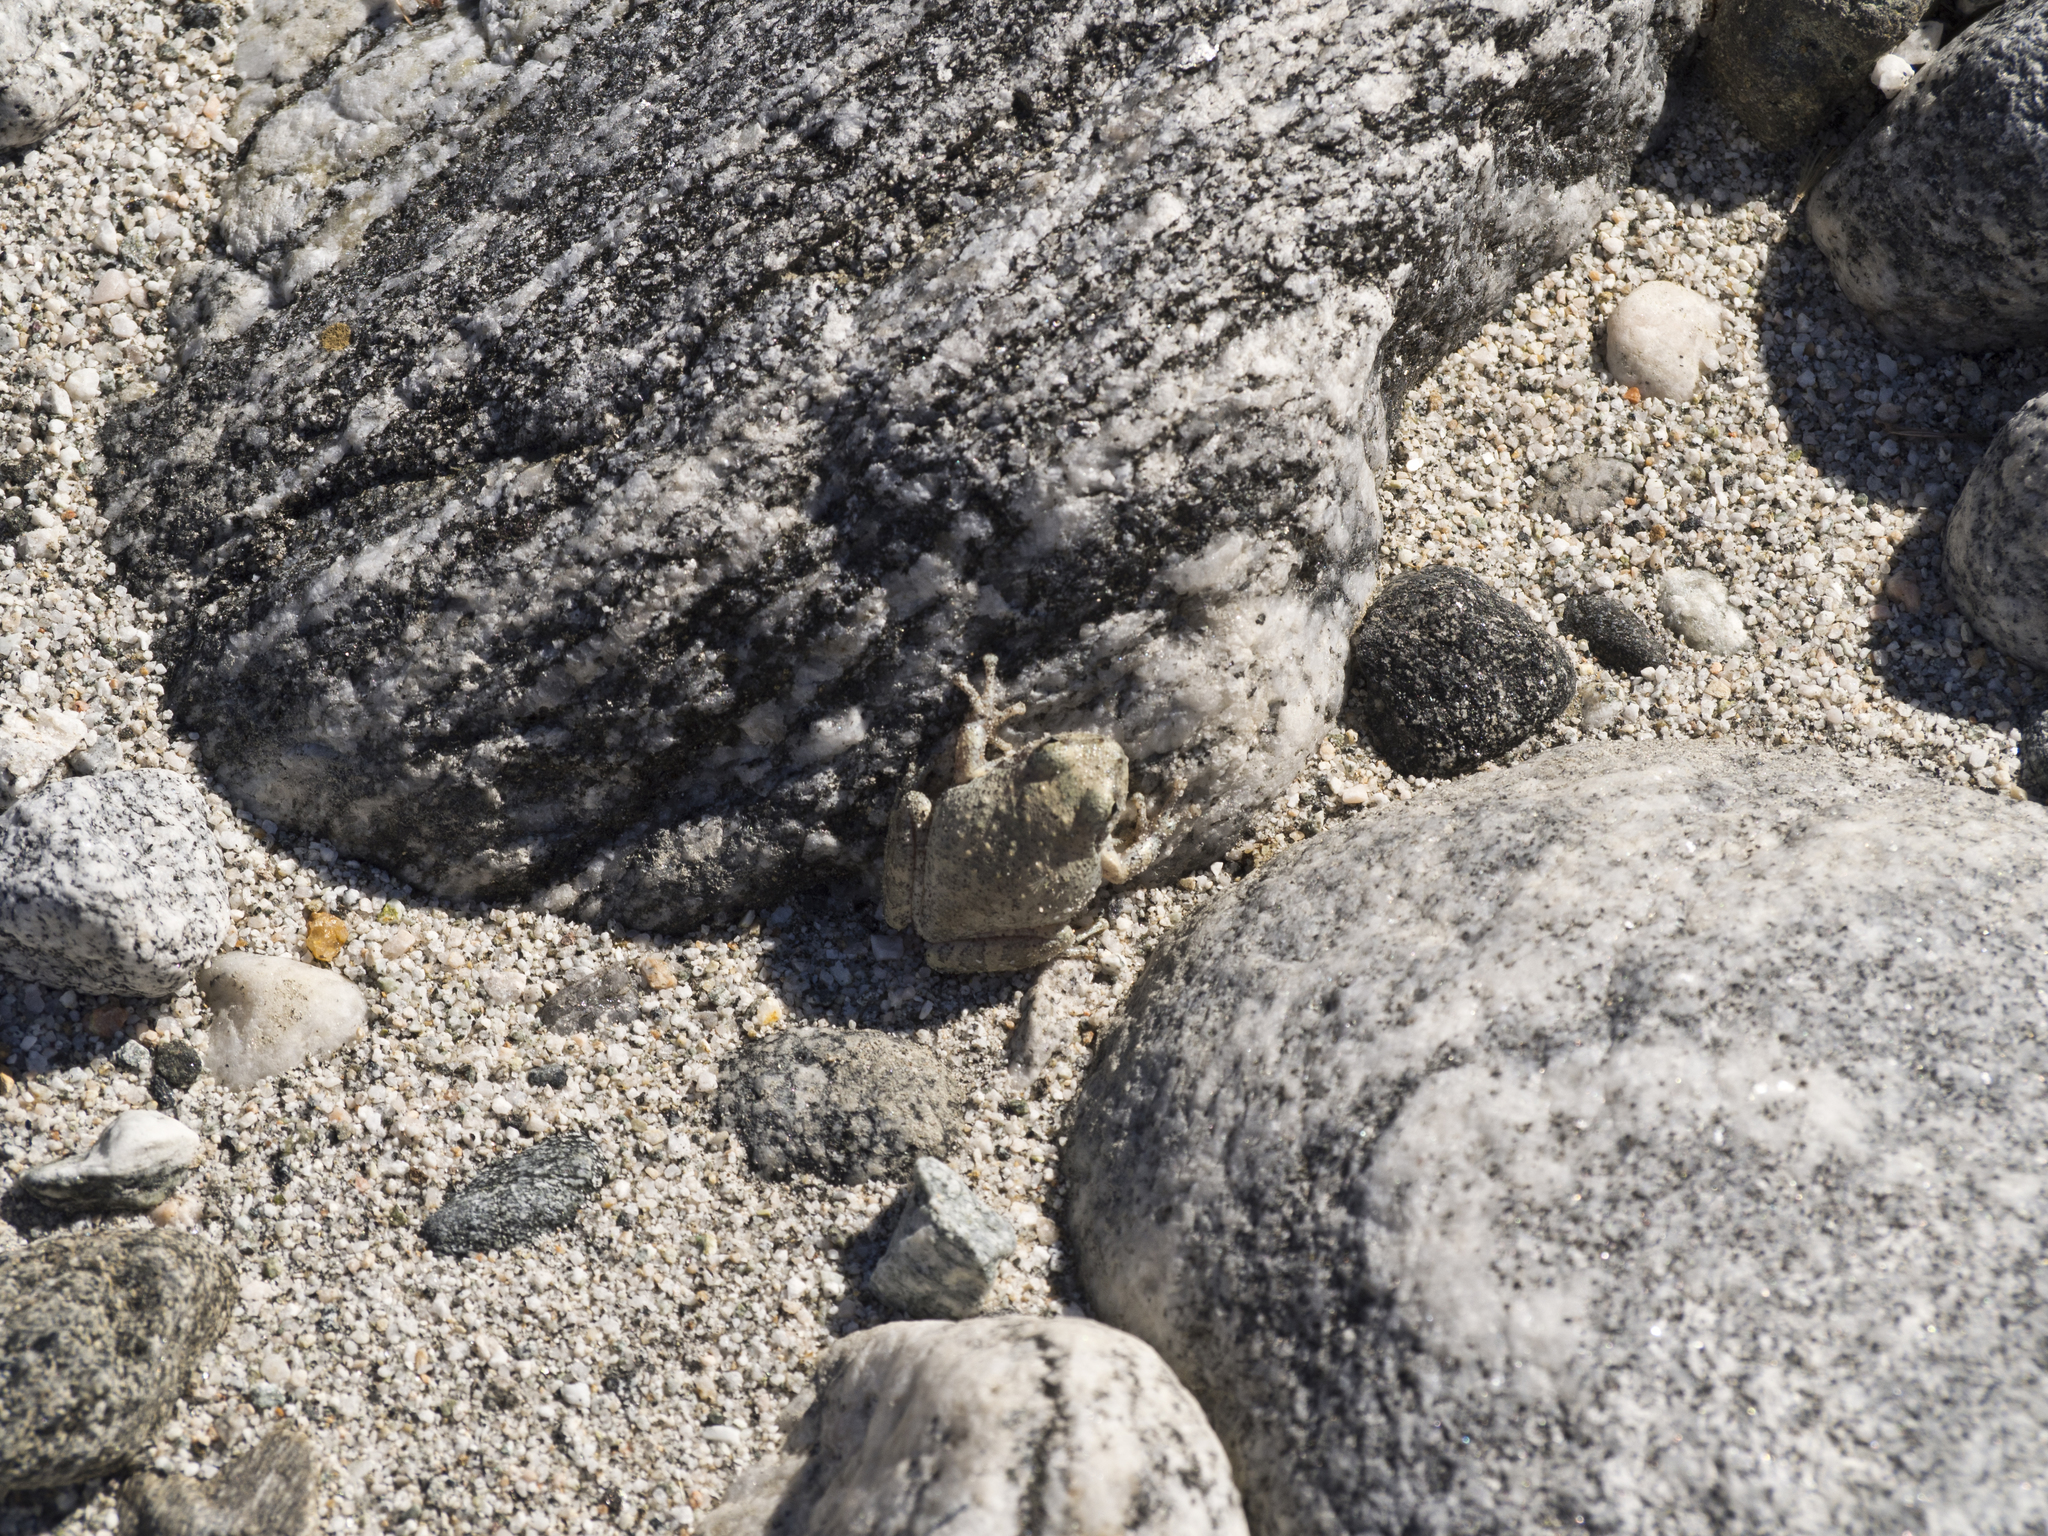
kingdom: Animalia
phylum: Chordata
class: Amphibia
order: Anura
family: Hylidae
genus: Pseudacris
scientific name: Pseudacris cadaverina
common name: California chorus frog
